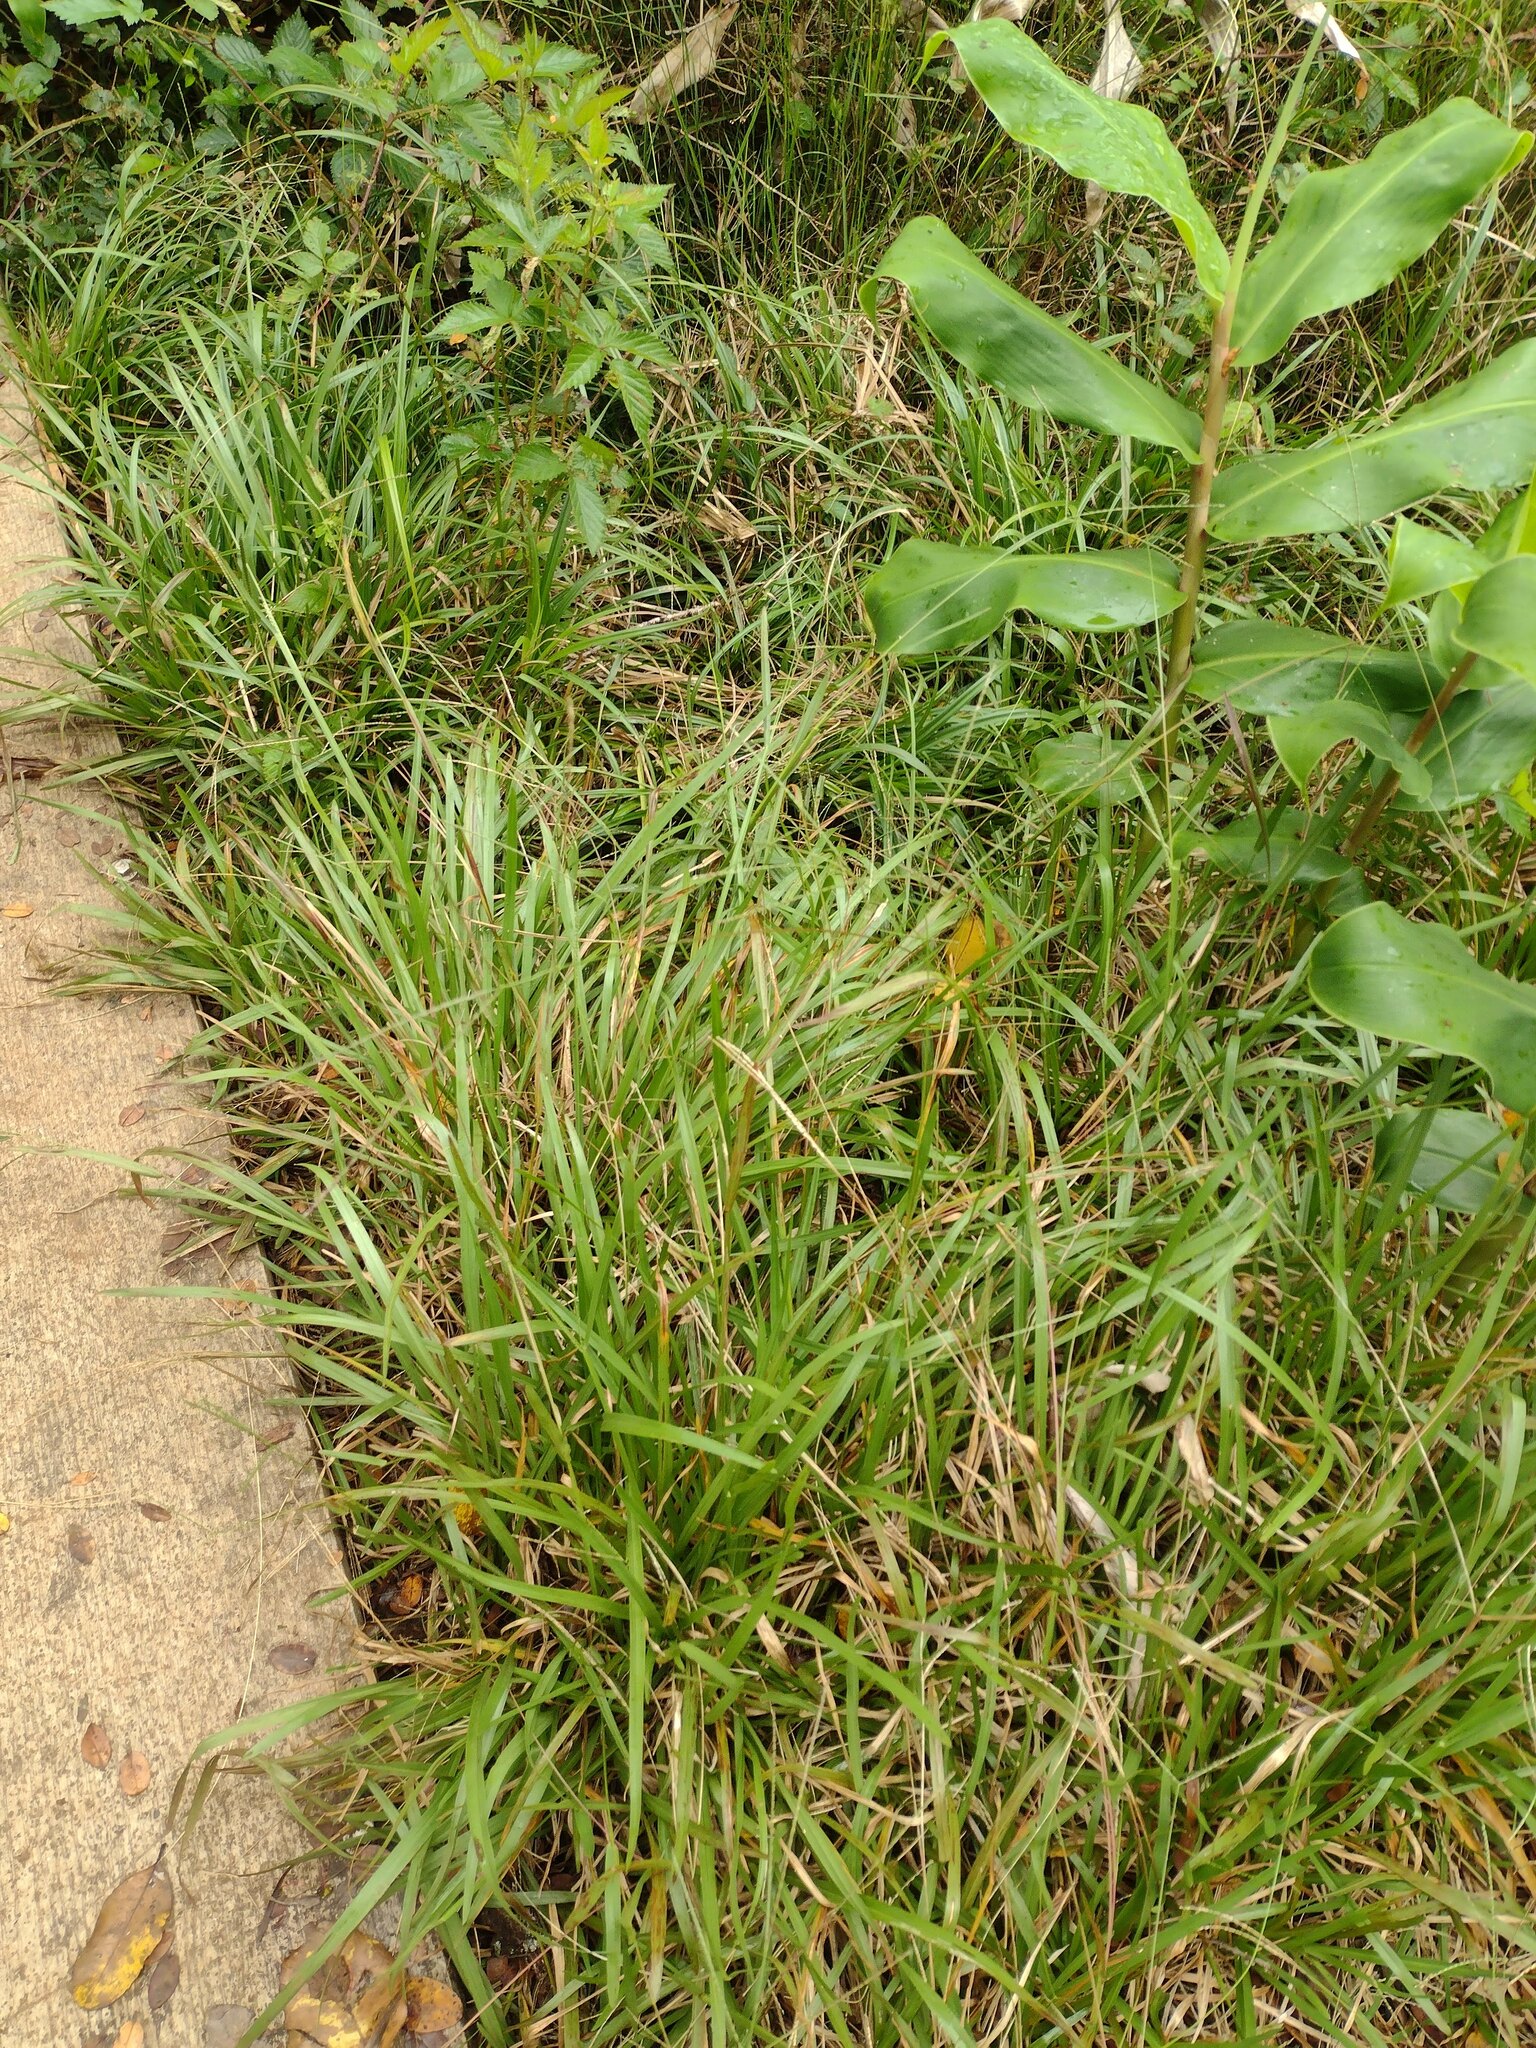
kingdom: Plantae
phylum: Tracheophyta
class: Liliopsida
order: Poales
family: Poaceae
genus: Axonopus
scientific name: Axonopus fissifolius
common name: Common carpetgrass
